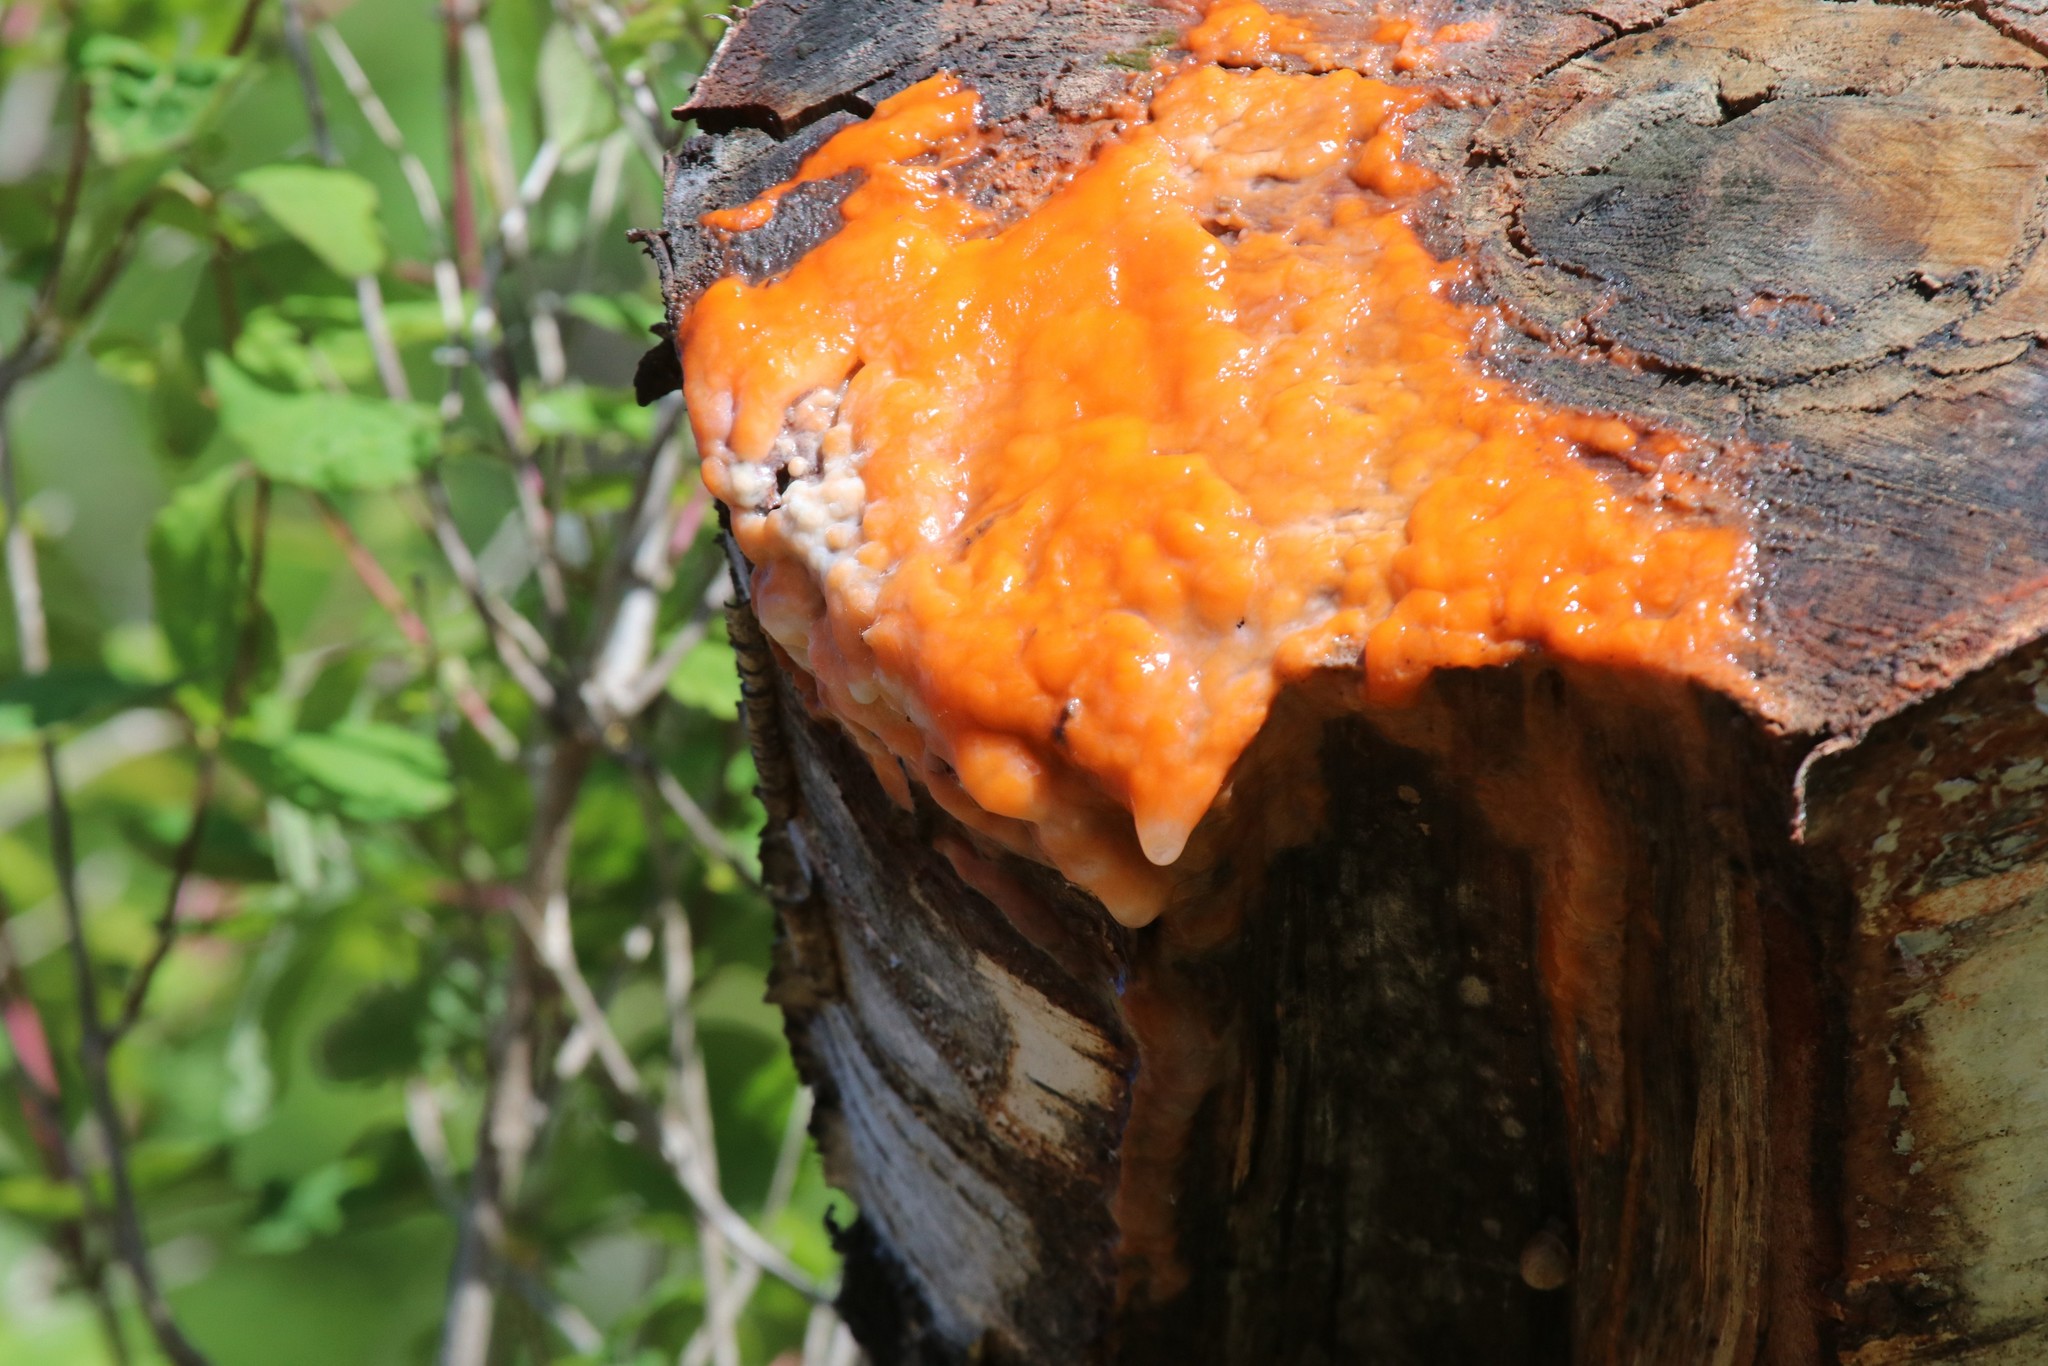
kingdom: Fungi
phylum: Ascomycota
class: Sordariomycetes
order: Hypocreales
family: Nectriaceae
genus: Fusicolla
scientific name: Fusicolla merismoides
